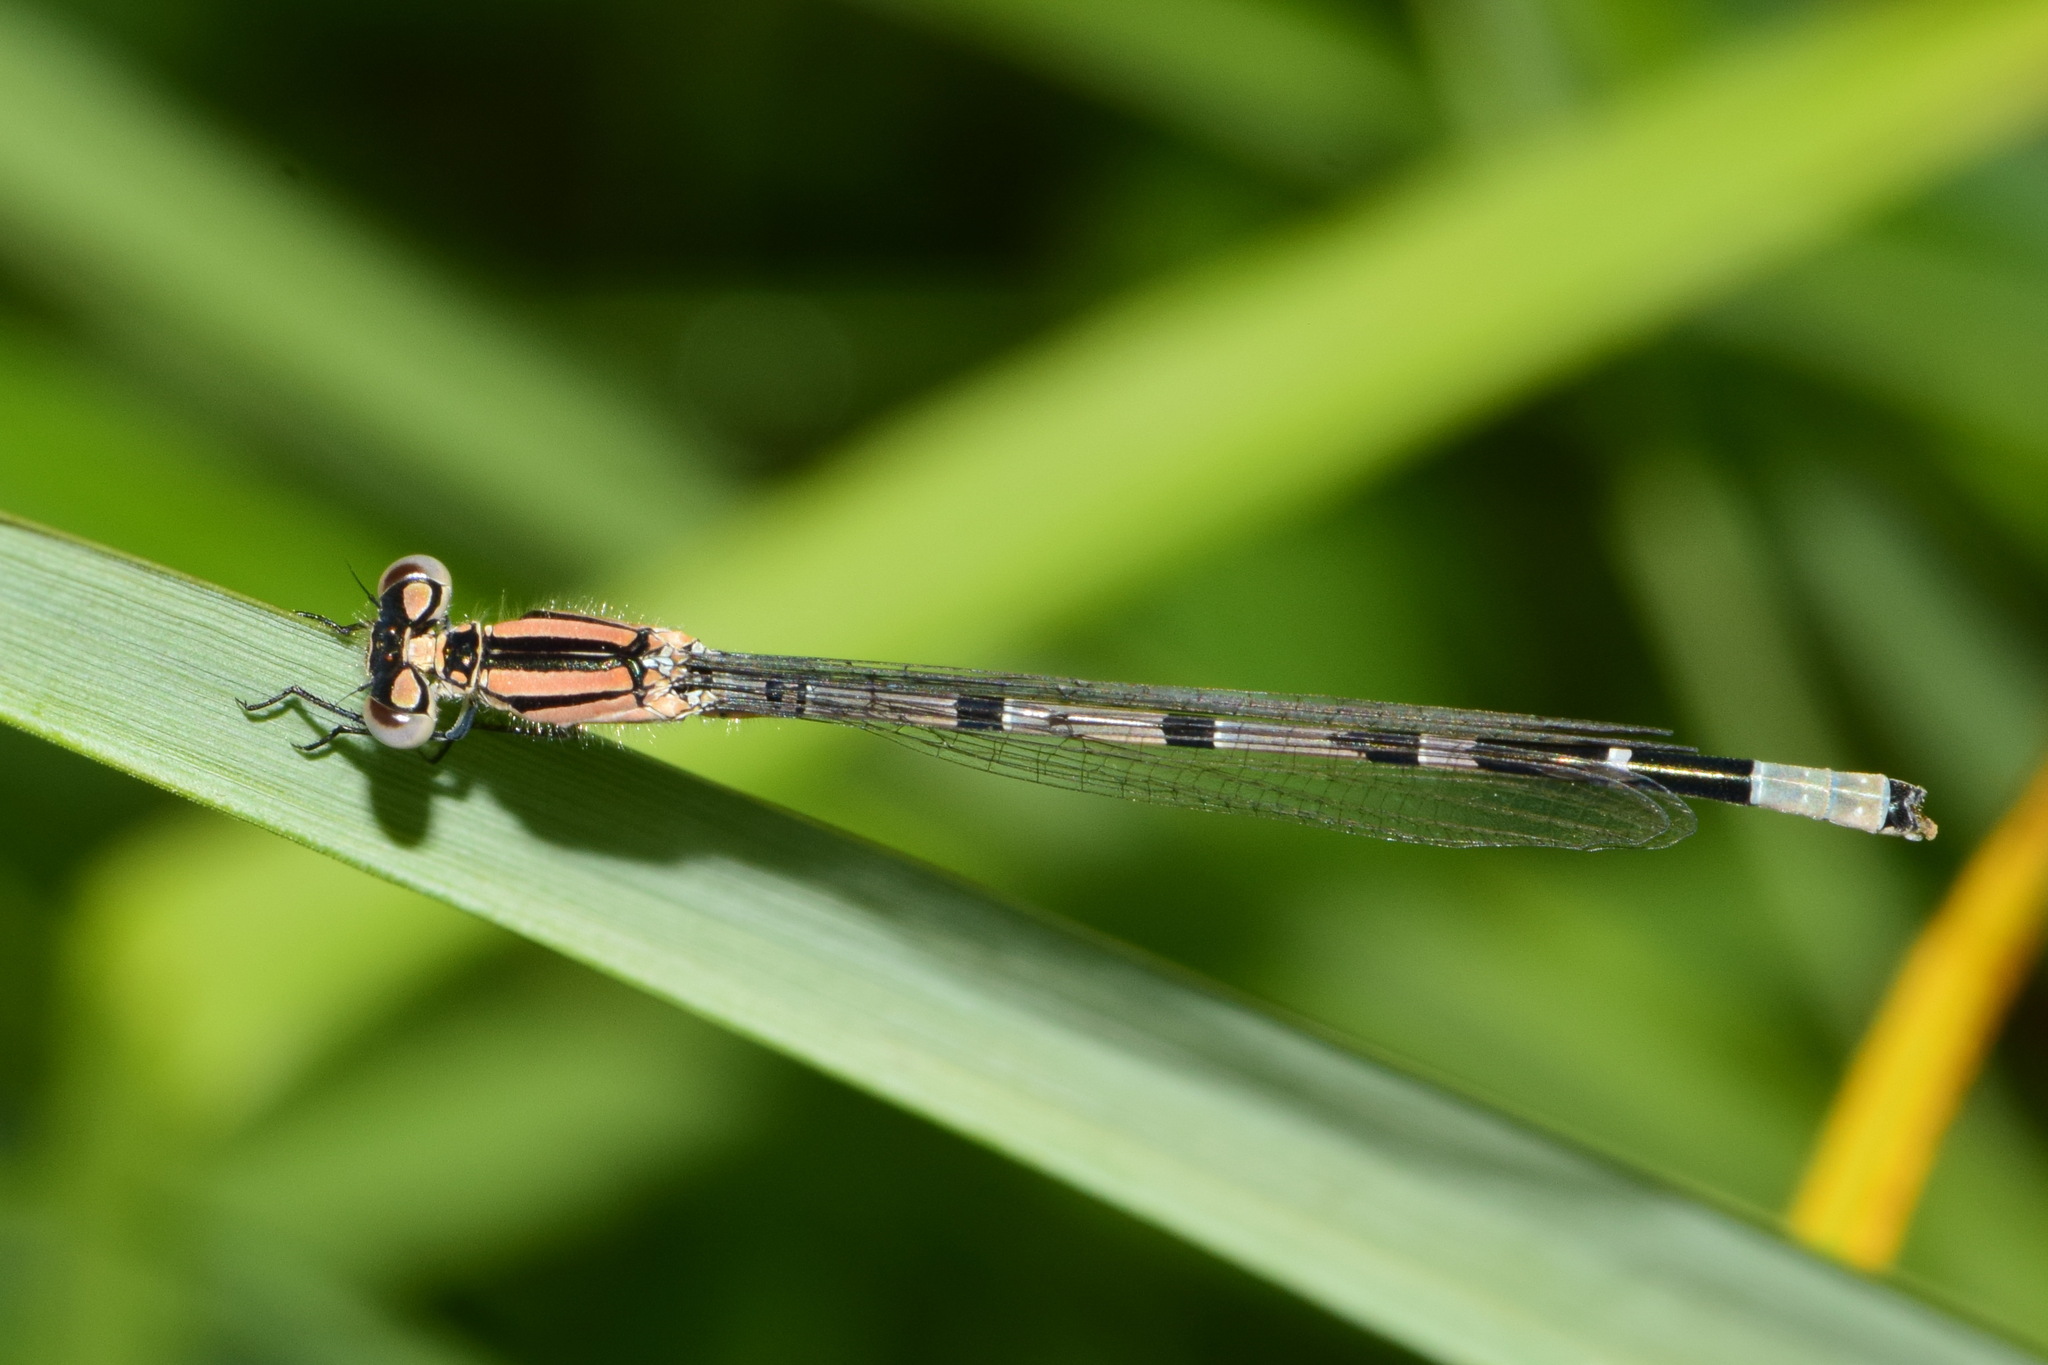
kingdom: Animalia
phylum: Arthropoda
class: Insecta
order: Odonata
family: Coenagrionidae
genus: Enallagma
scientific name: Enallagma cyathigerum
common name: Common blue damselfly
